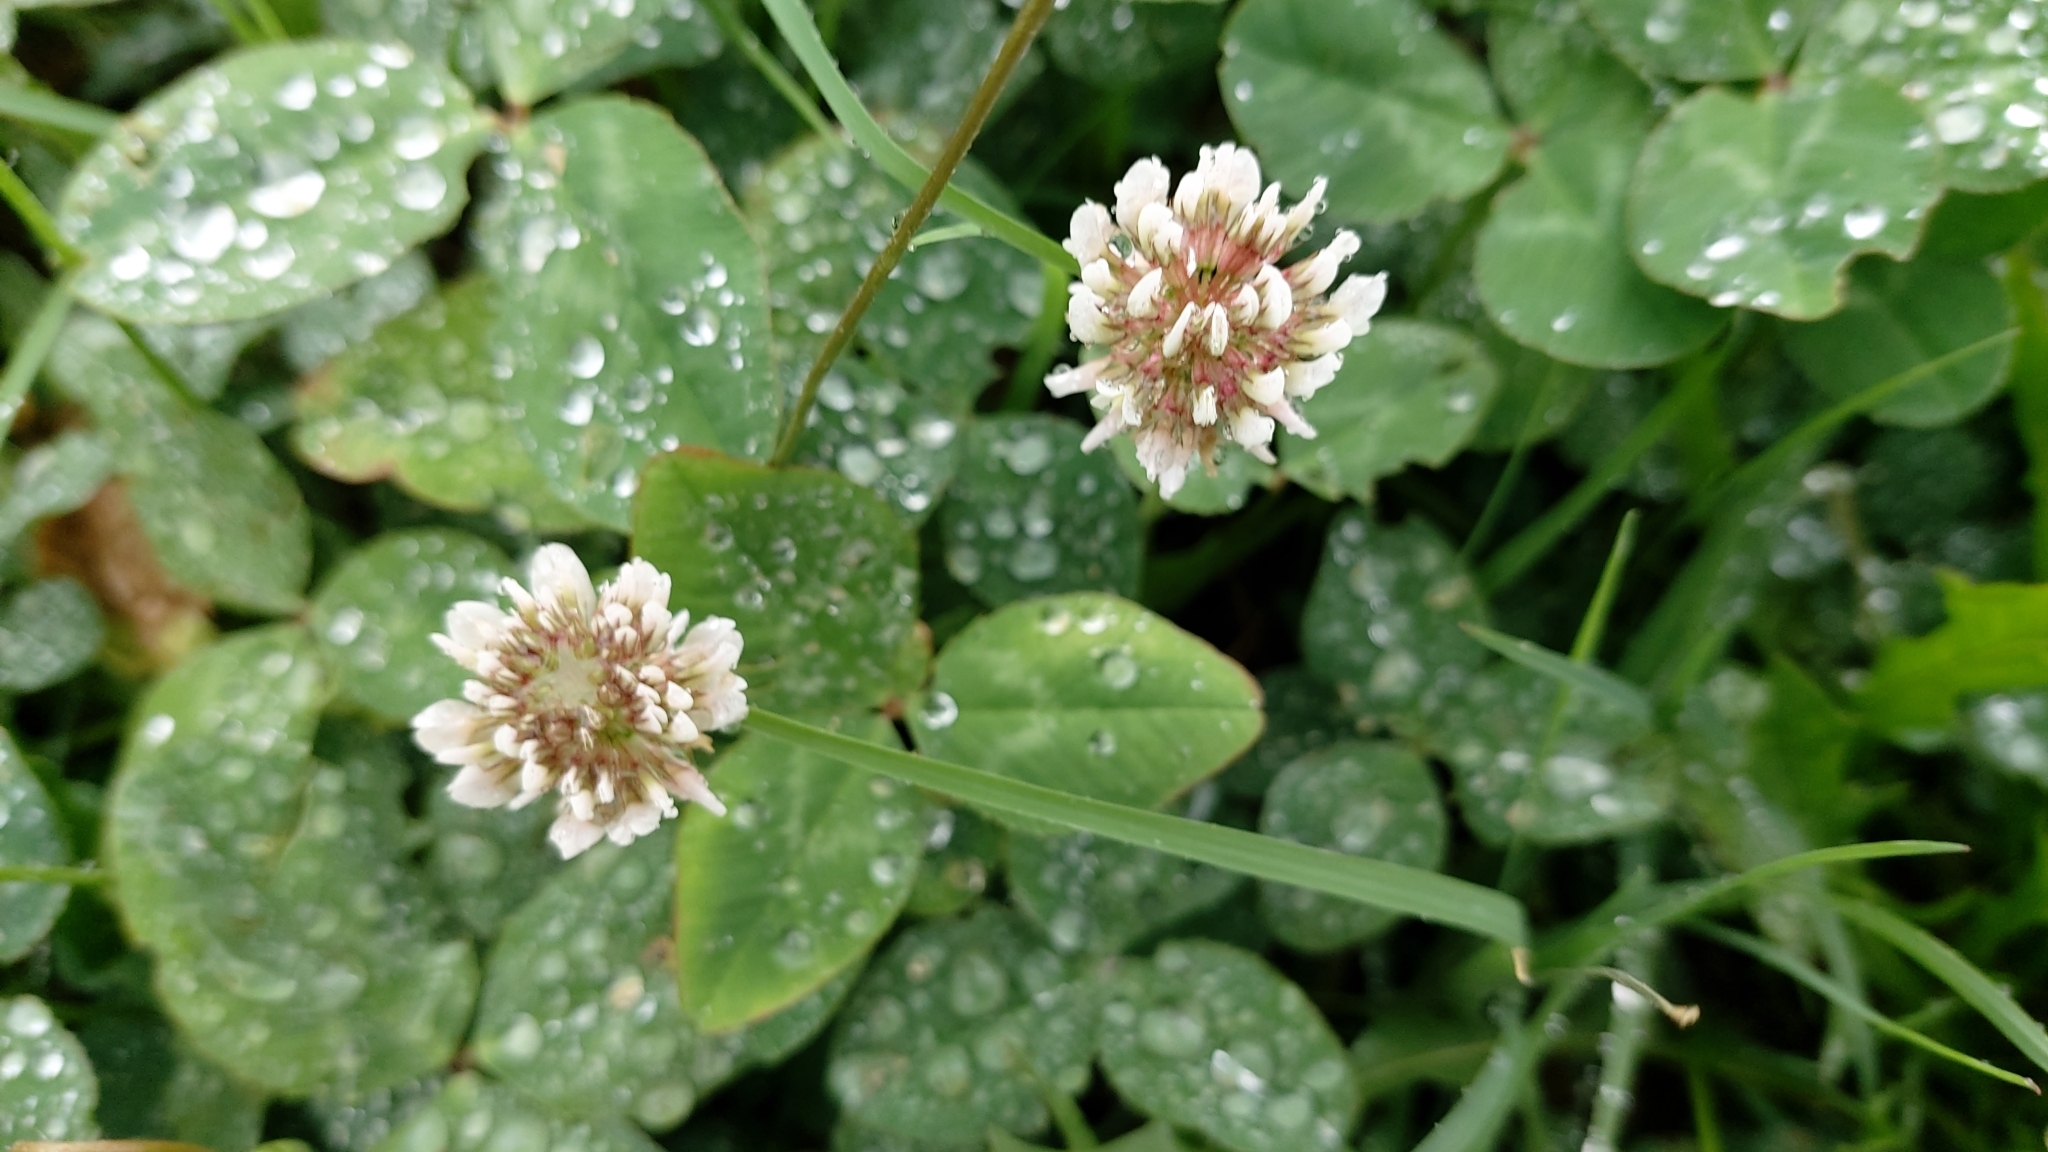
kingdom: Plantae
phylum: Tracheophyta
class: Magnoliopsida
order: Fabales
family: Fabaceae
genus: Trifolium
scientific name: Trifolium repens
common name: White clover
